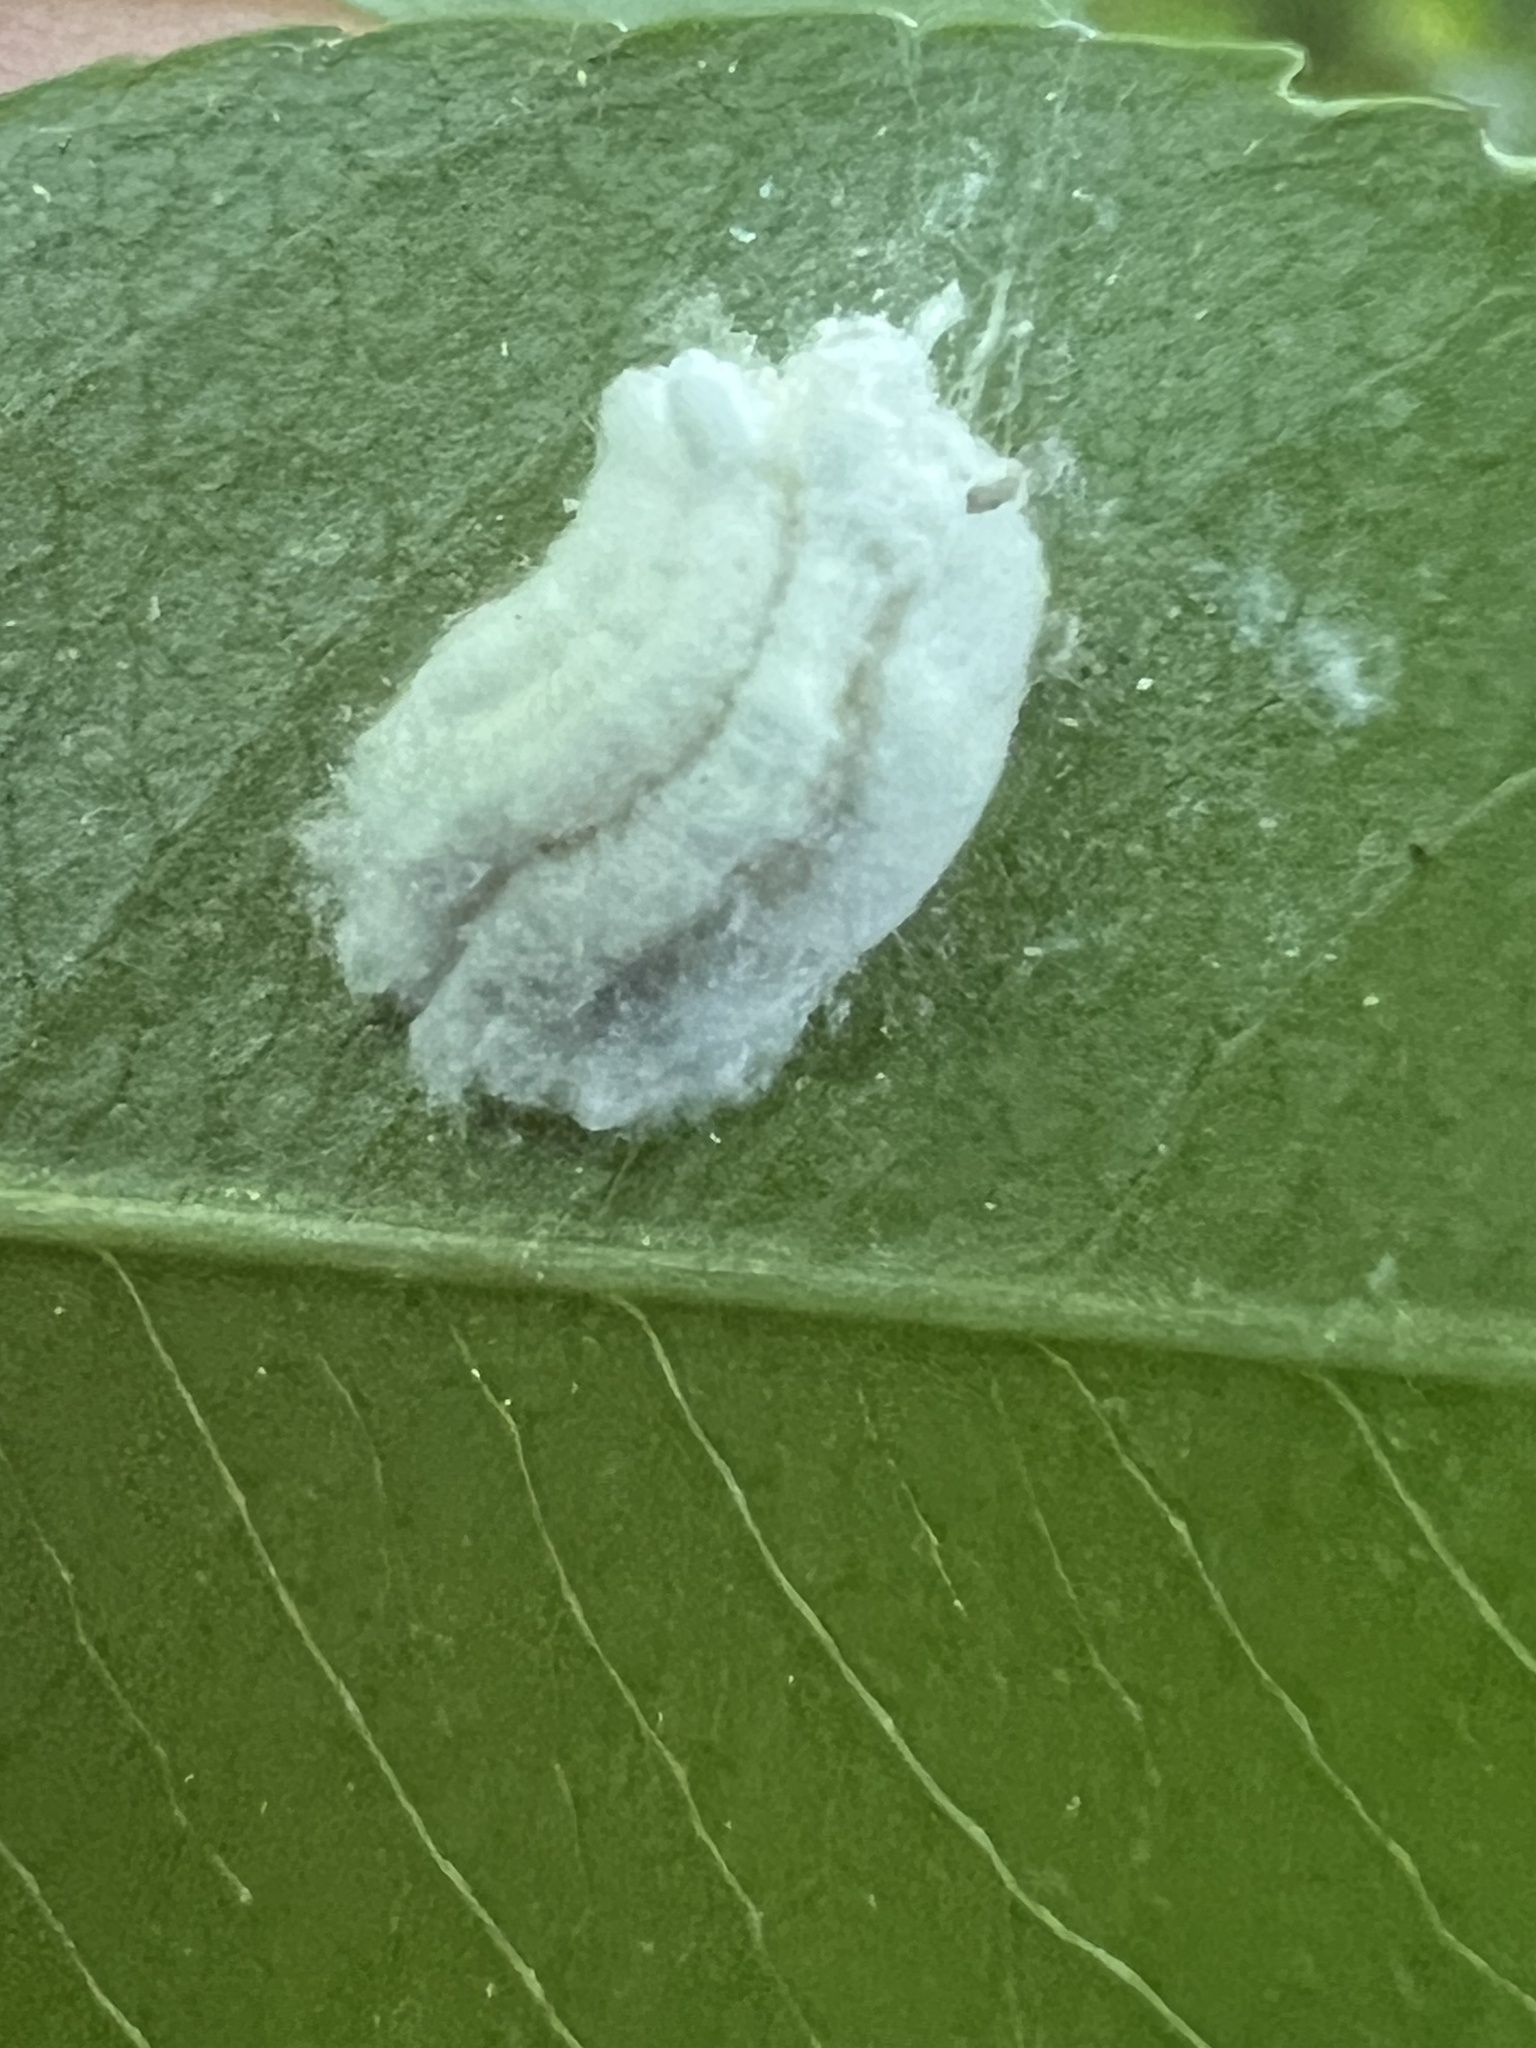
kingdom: Animalia
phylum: Arthropoda
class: Insecta
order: Hemiptera
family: Coccidae
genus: Pulvinaria
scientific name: Pulvinaria
